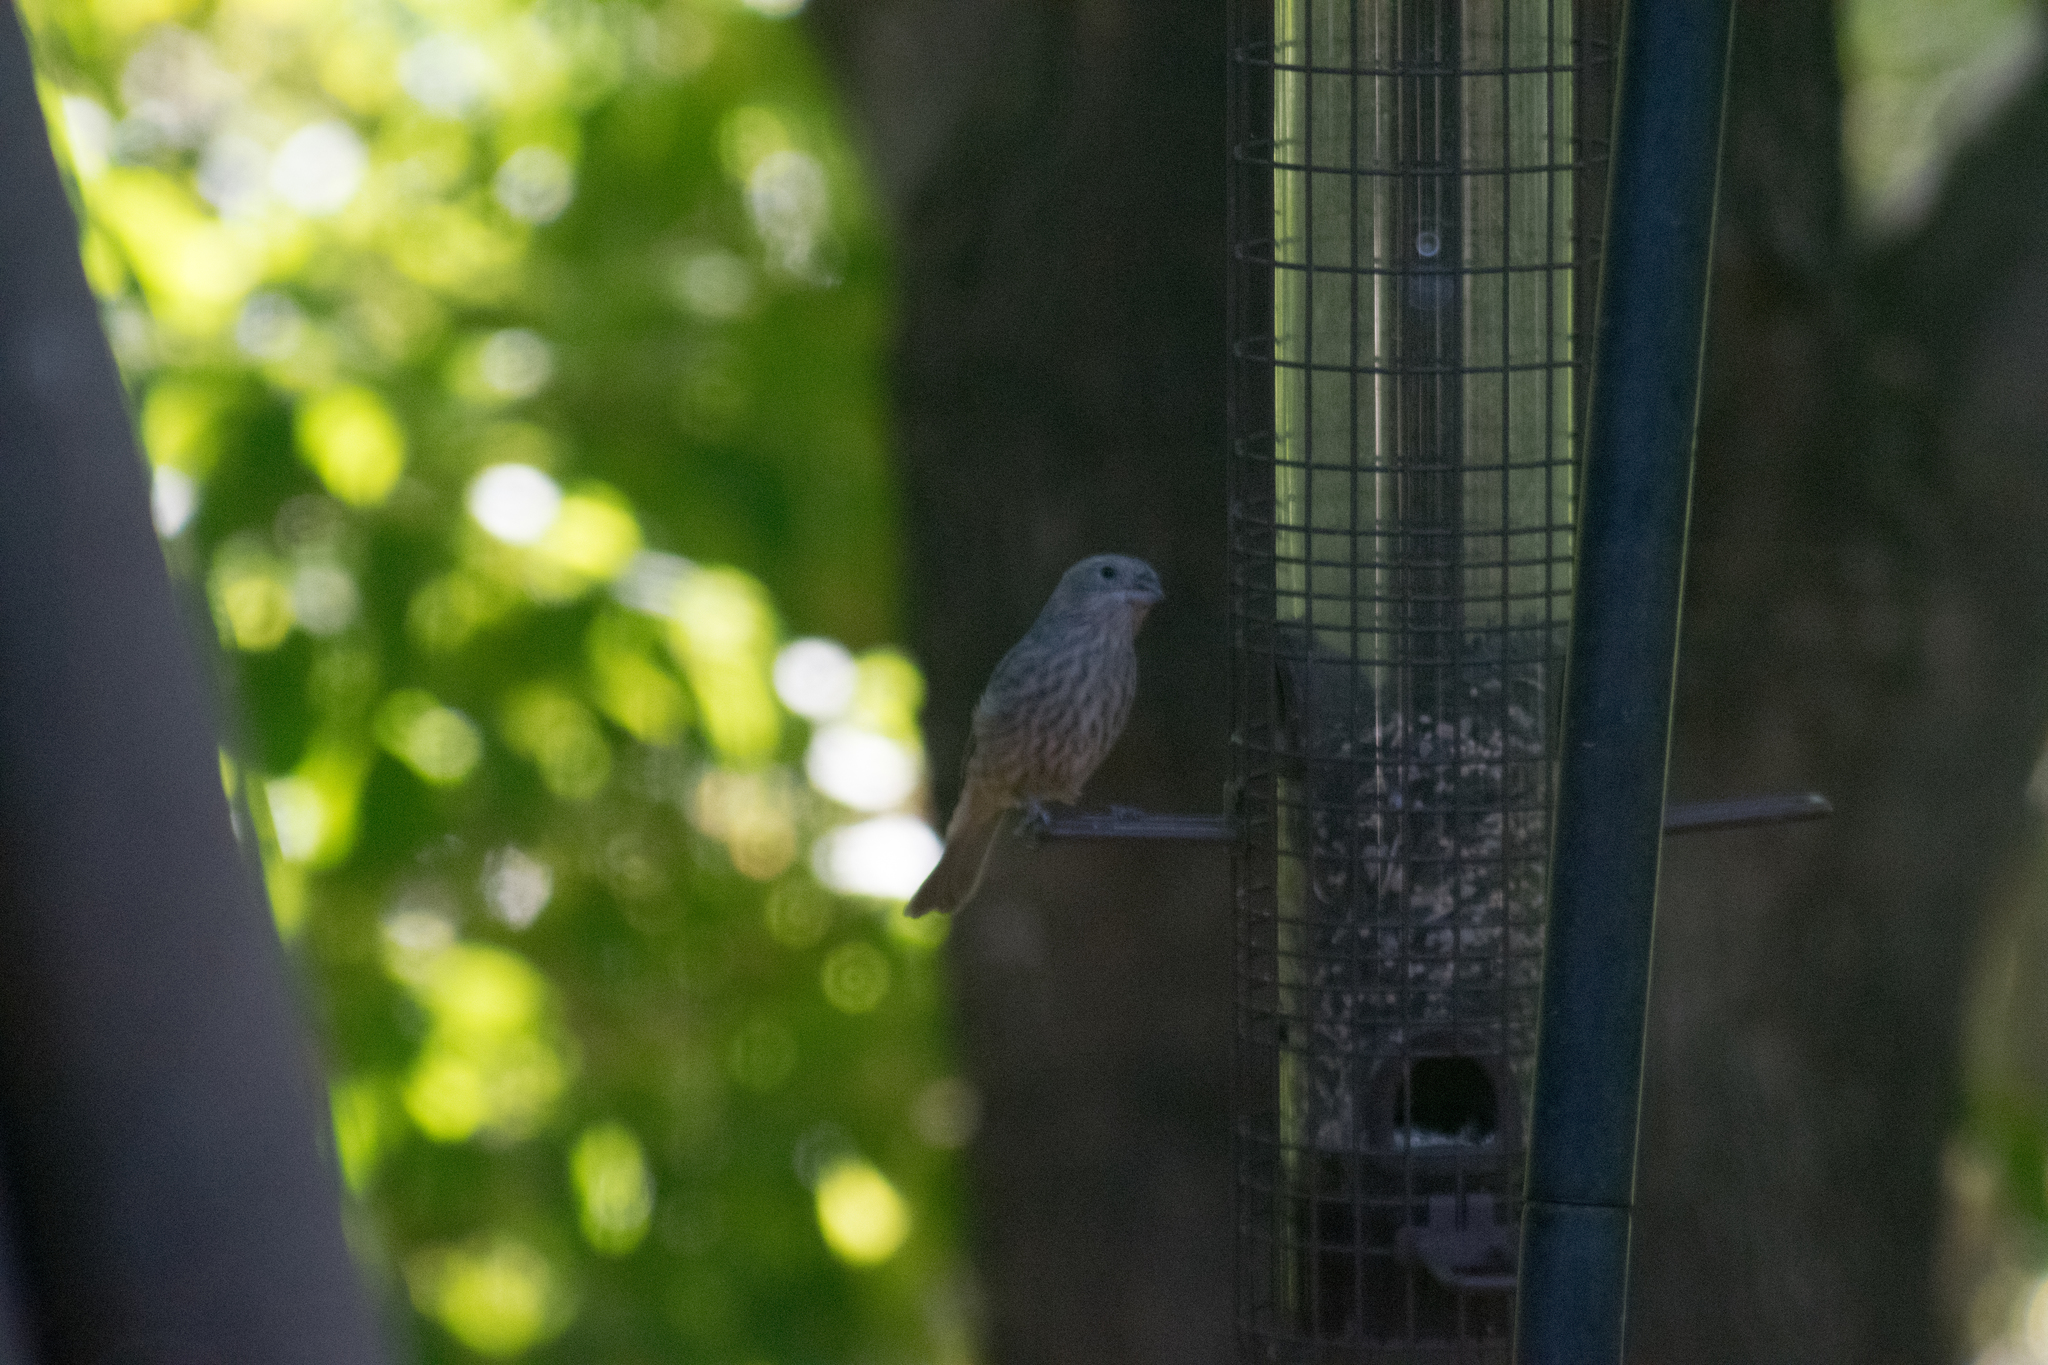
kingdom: Animalia
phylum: Chordata
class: Aves
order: Passeriformes
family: Fringillidae
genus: Haemorhous
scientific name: Haemorhous mexicanus
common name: House finch
